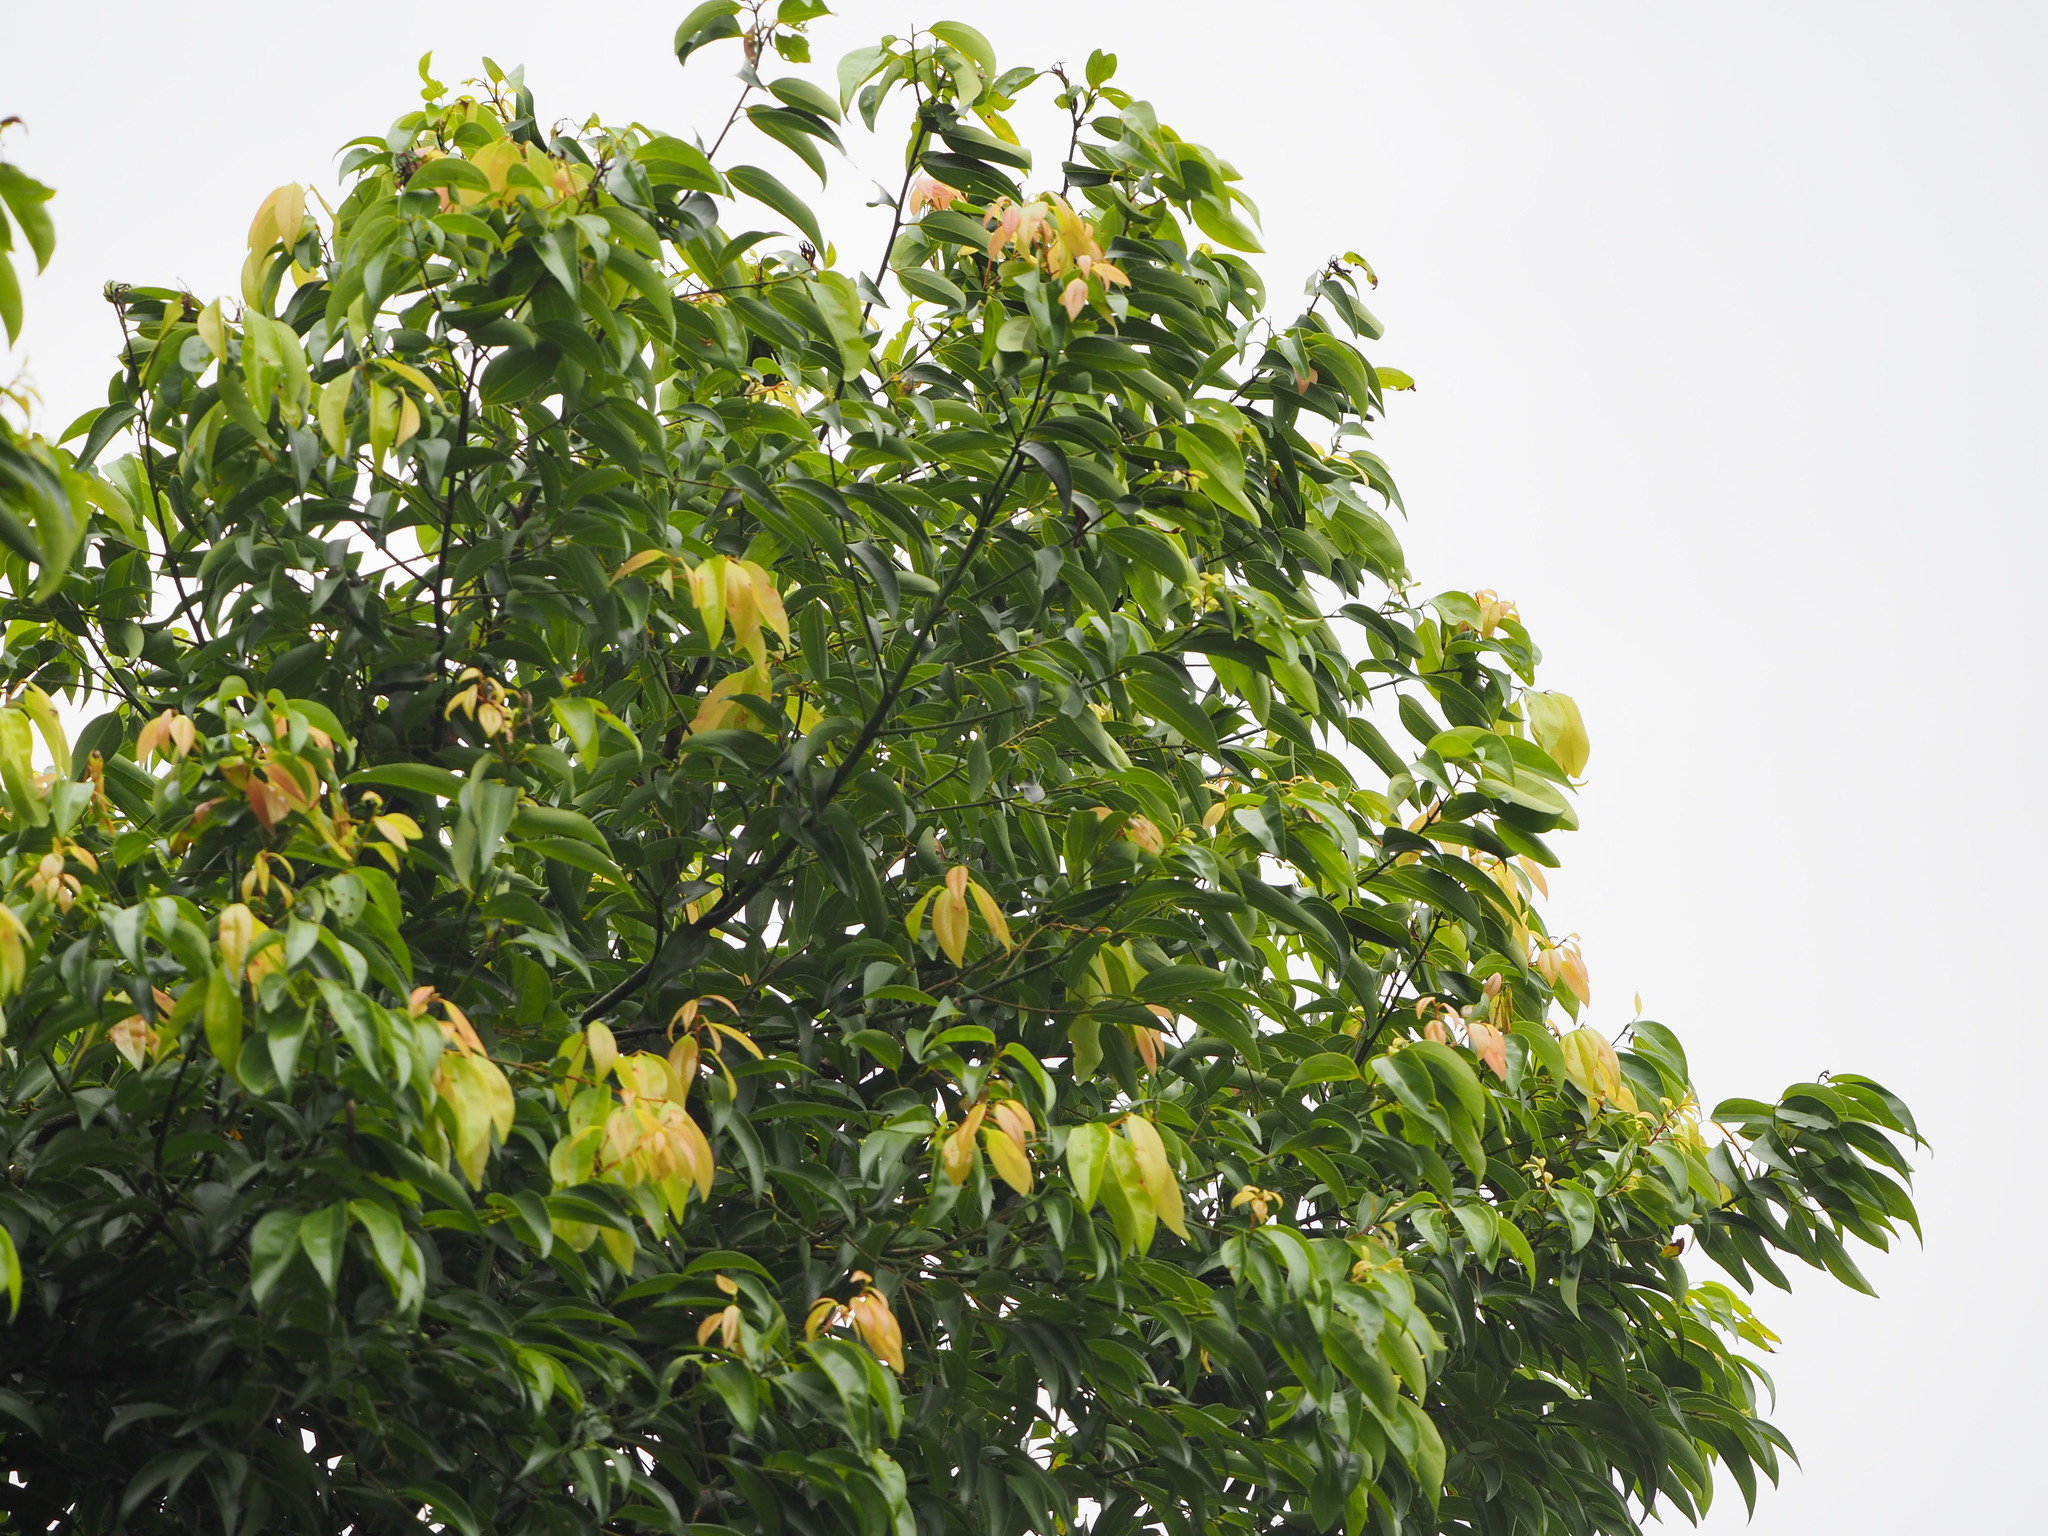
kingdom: Plantae
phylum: Tracheophyta
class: Magnoliopsida
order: Laurales
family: Lauraceae
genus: Cinnamomum
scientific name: Cinnamomum burmanni
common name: Padang cassia
